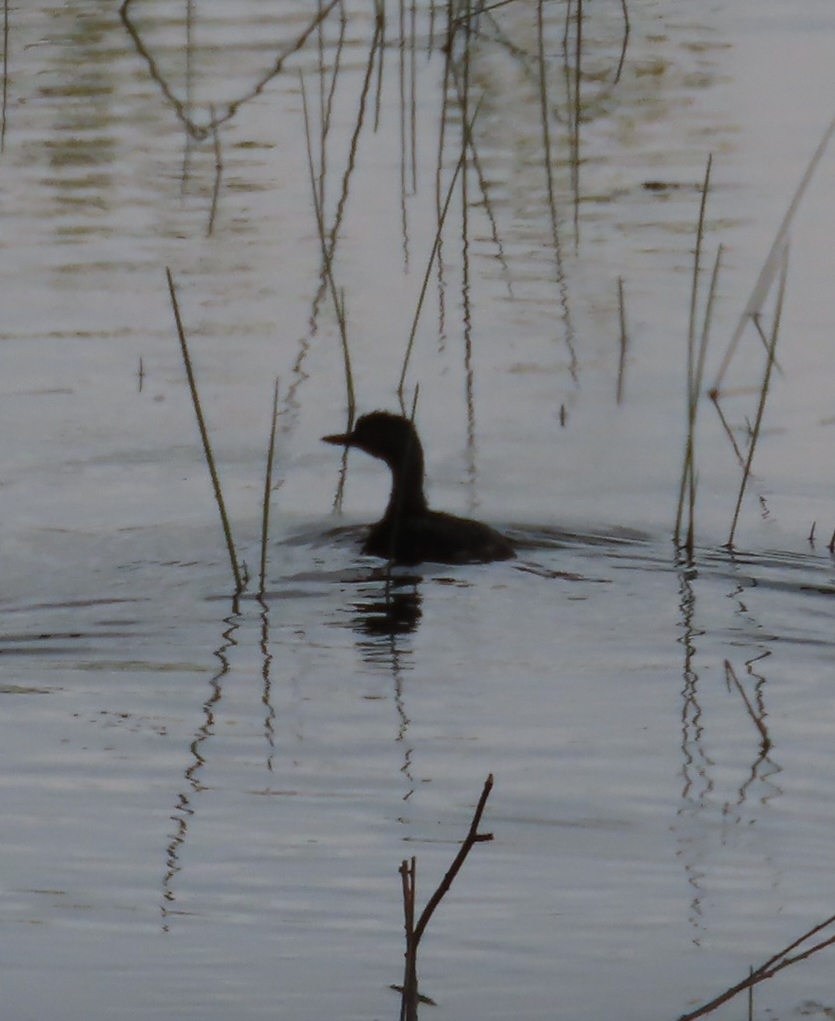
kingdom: Animalia
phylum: Chordata
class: Aves
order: Podicipediformes
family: Podicipedidae
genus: Tachybaptus
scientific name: Tachybaptus dominicus
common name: Least grebe
